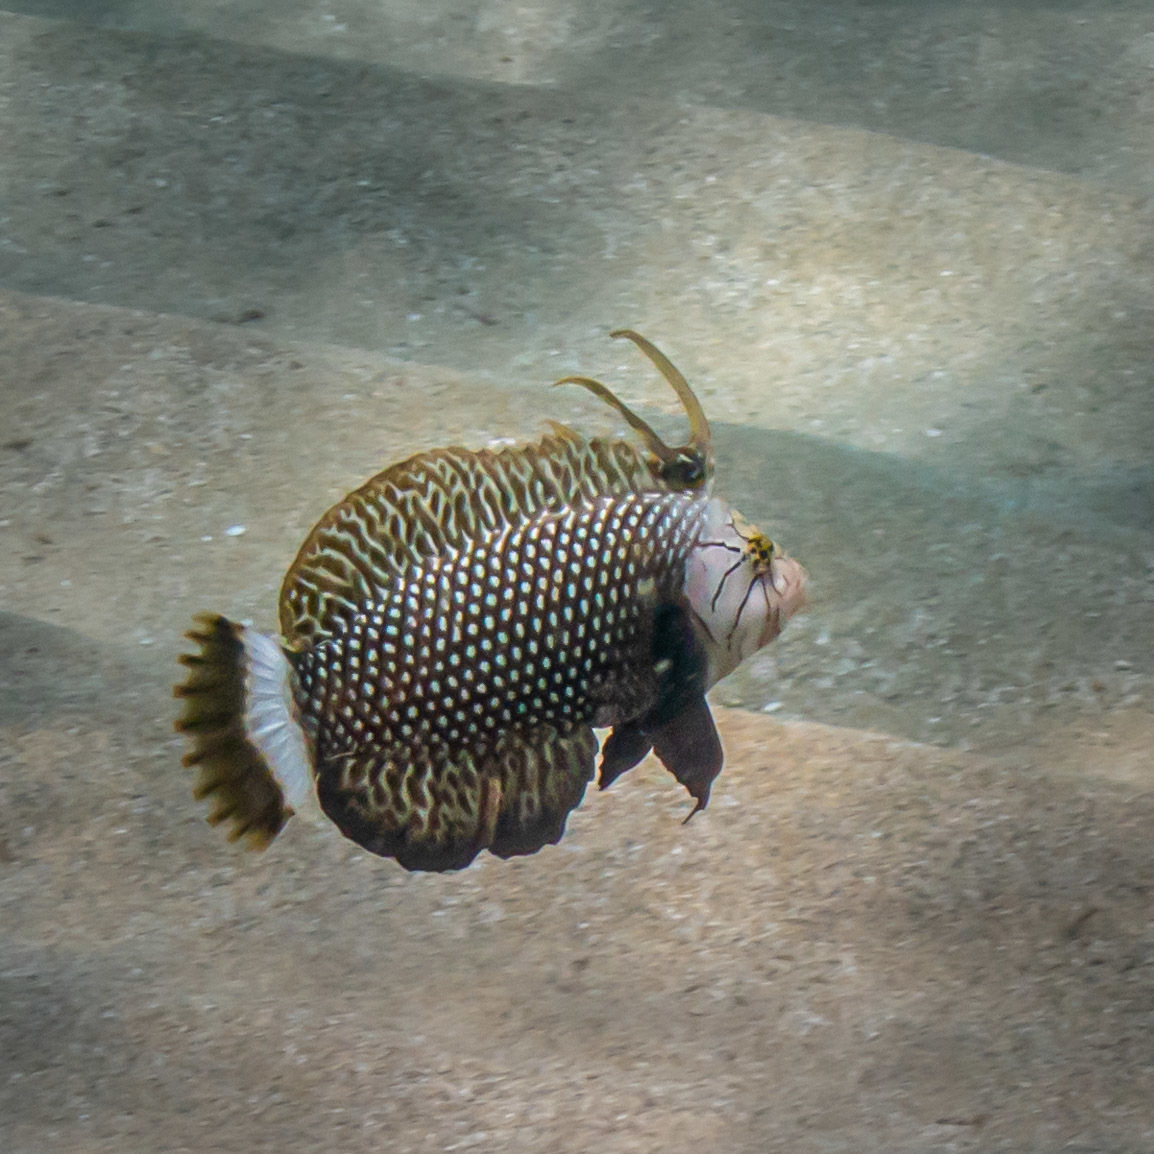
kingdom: Animalia
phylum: Chordata
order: Perciformes
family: Labridae
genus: Novaculichthys
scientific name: Novaculichthys taeniourus
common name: Rockmover wrasse
